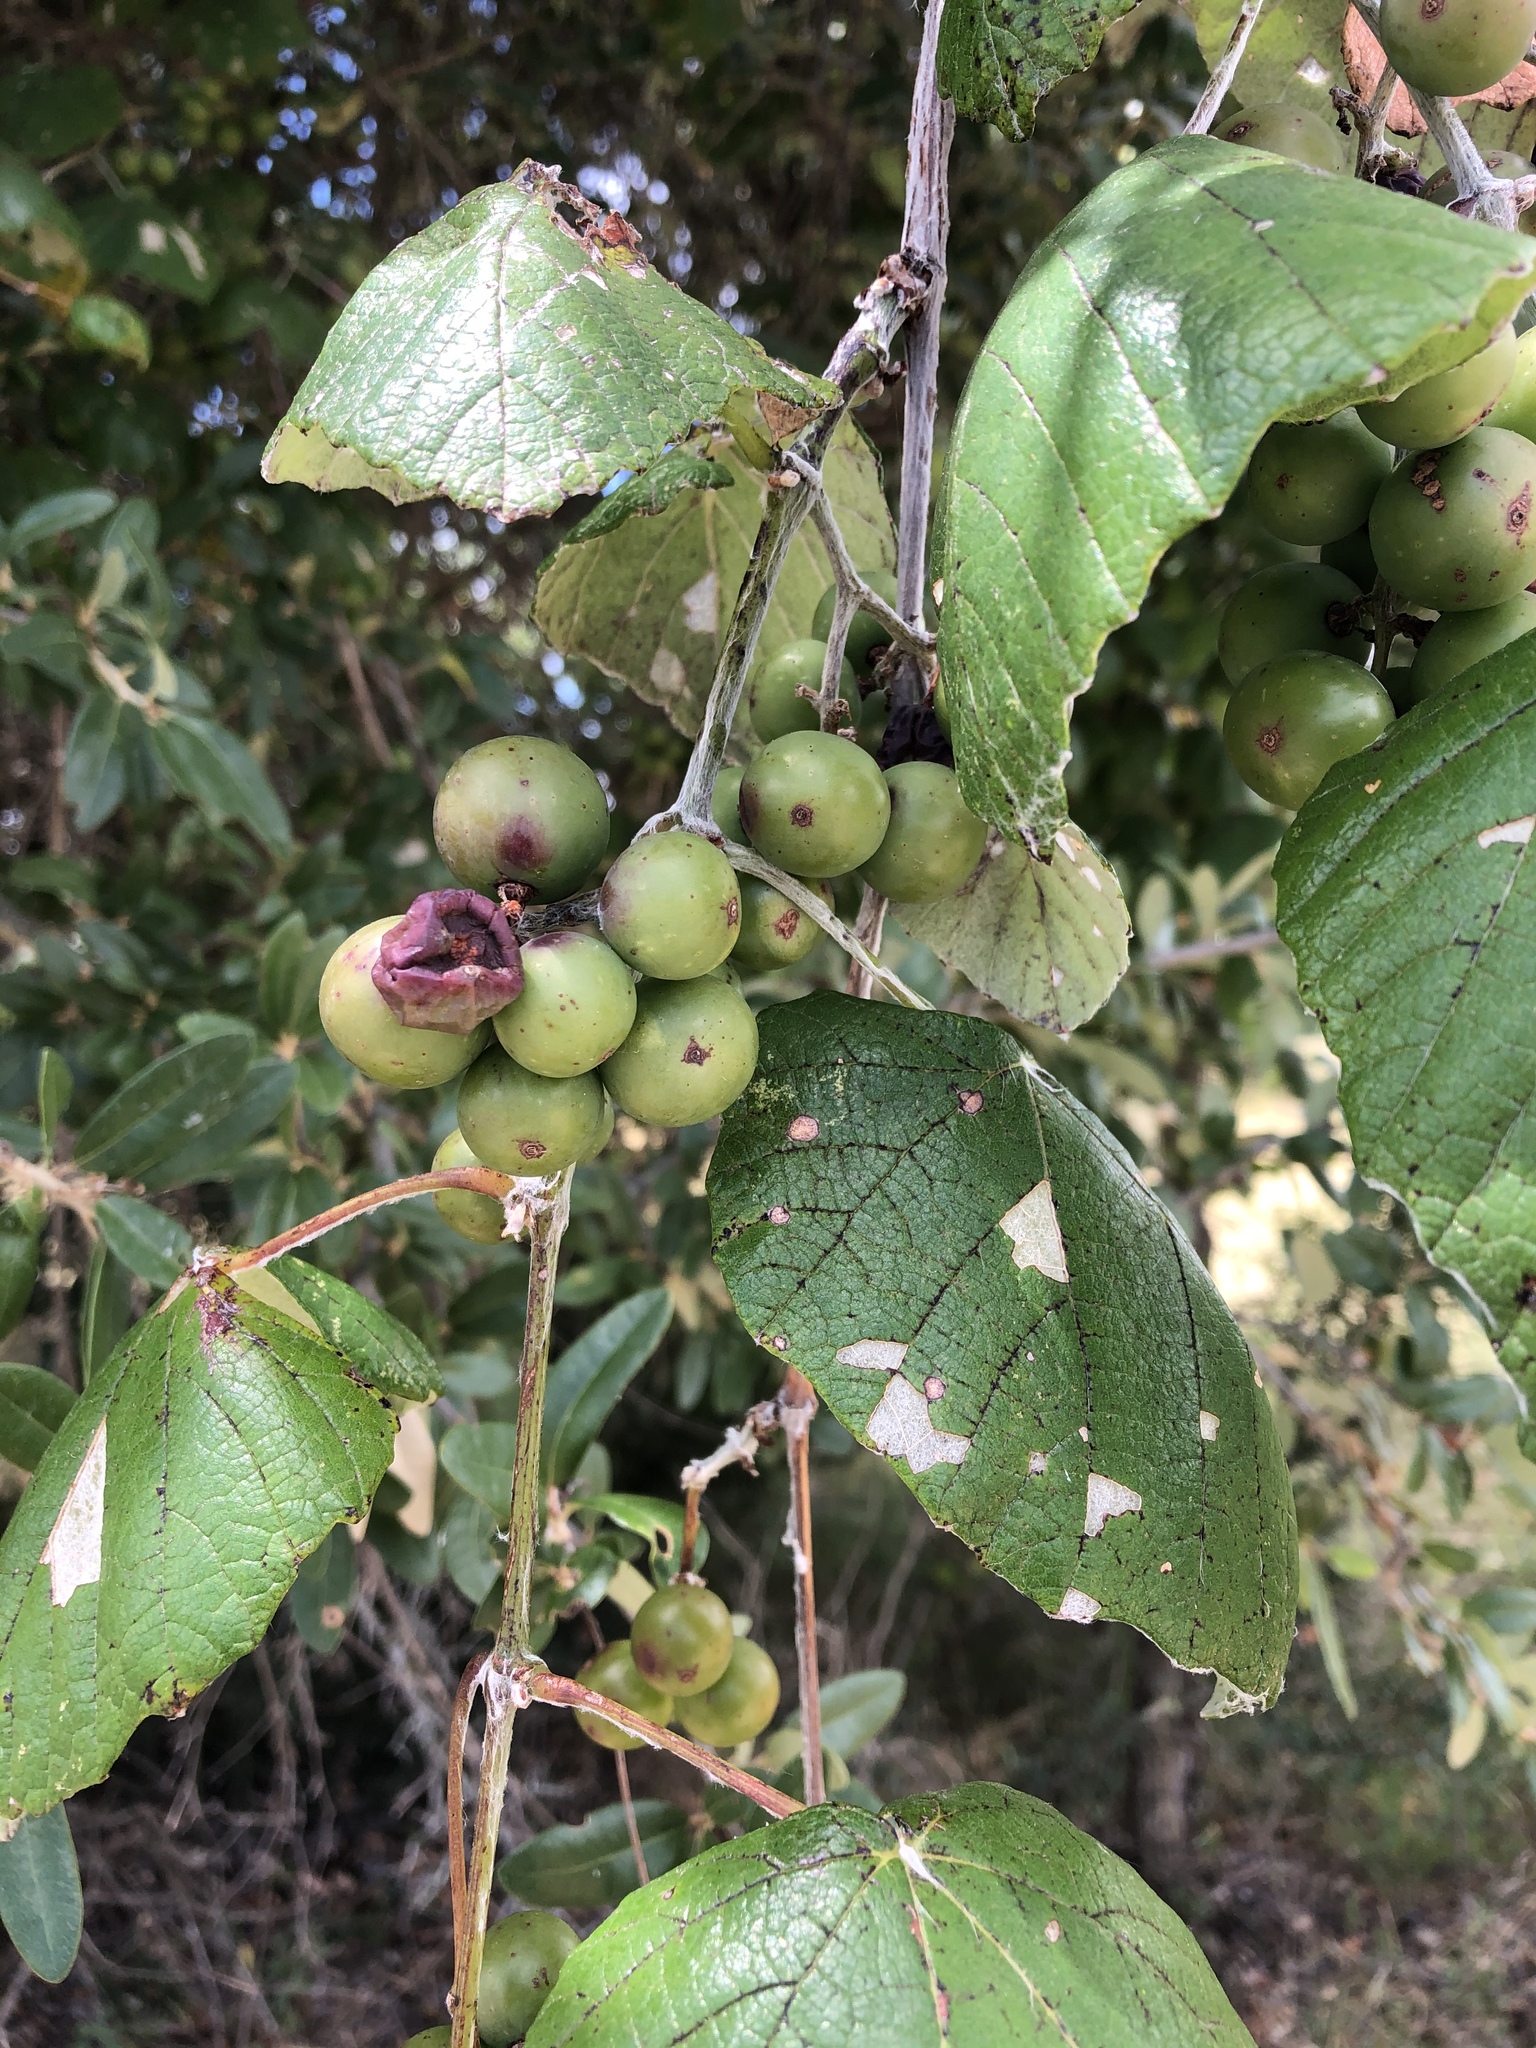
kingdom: Plantae
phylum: Tracheophyta
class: Magnoliopsida
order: Vitales
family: Vitaceae
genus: Vitis
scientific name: Vitis mustangensis
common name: Mustang grape
